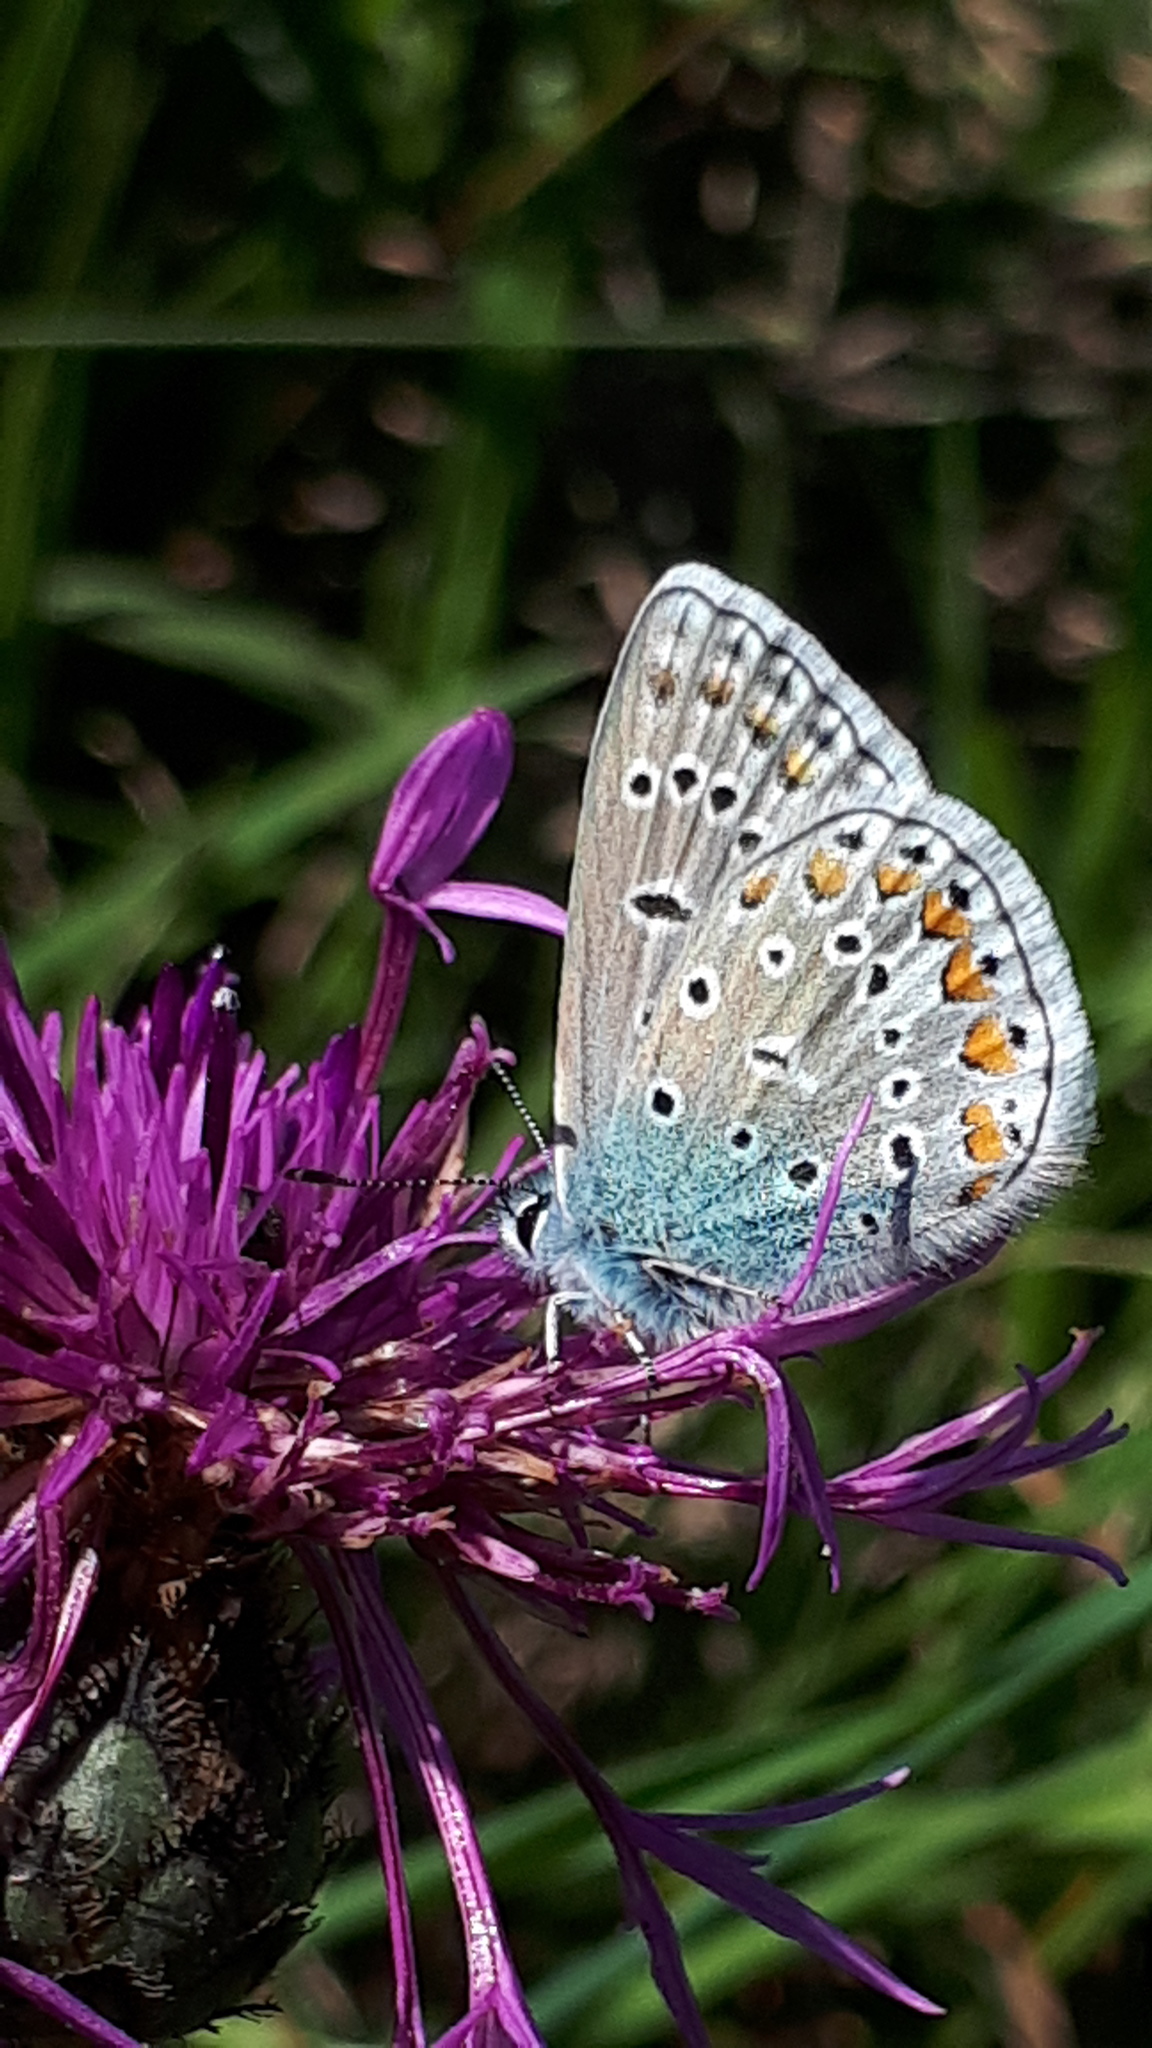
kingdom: Animalia
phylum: Arthropoda
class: Insecta
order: Lepidoptera
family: Lycaenidae
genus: Polyommatus
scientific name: Polyommatus icarus
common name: Common blue
